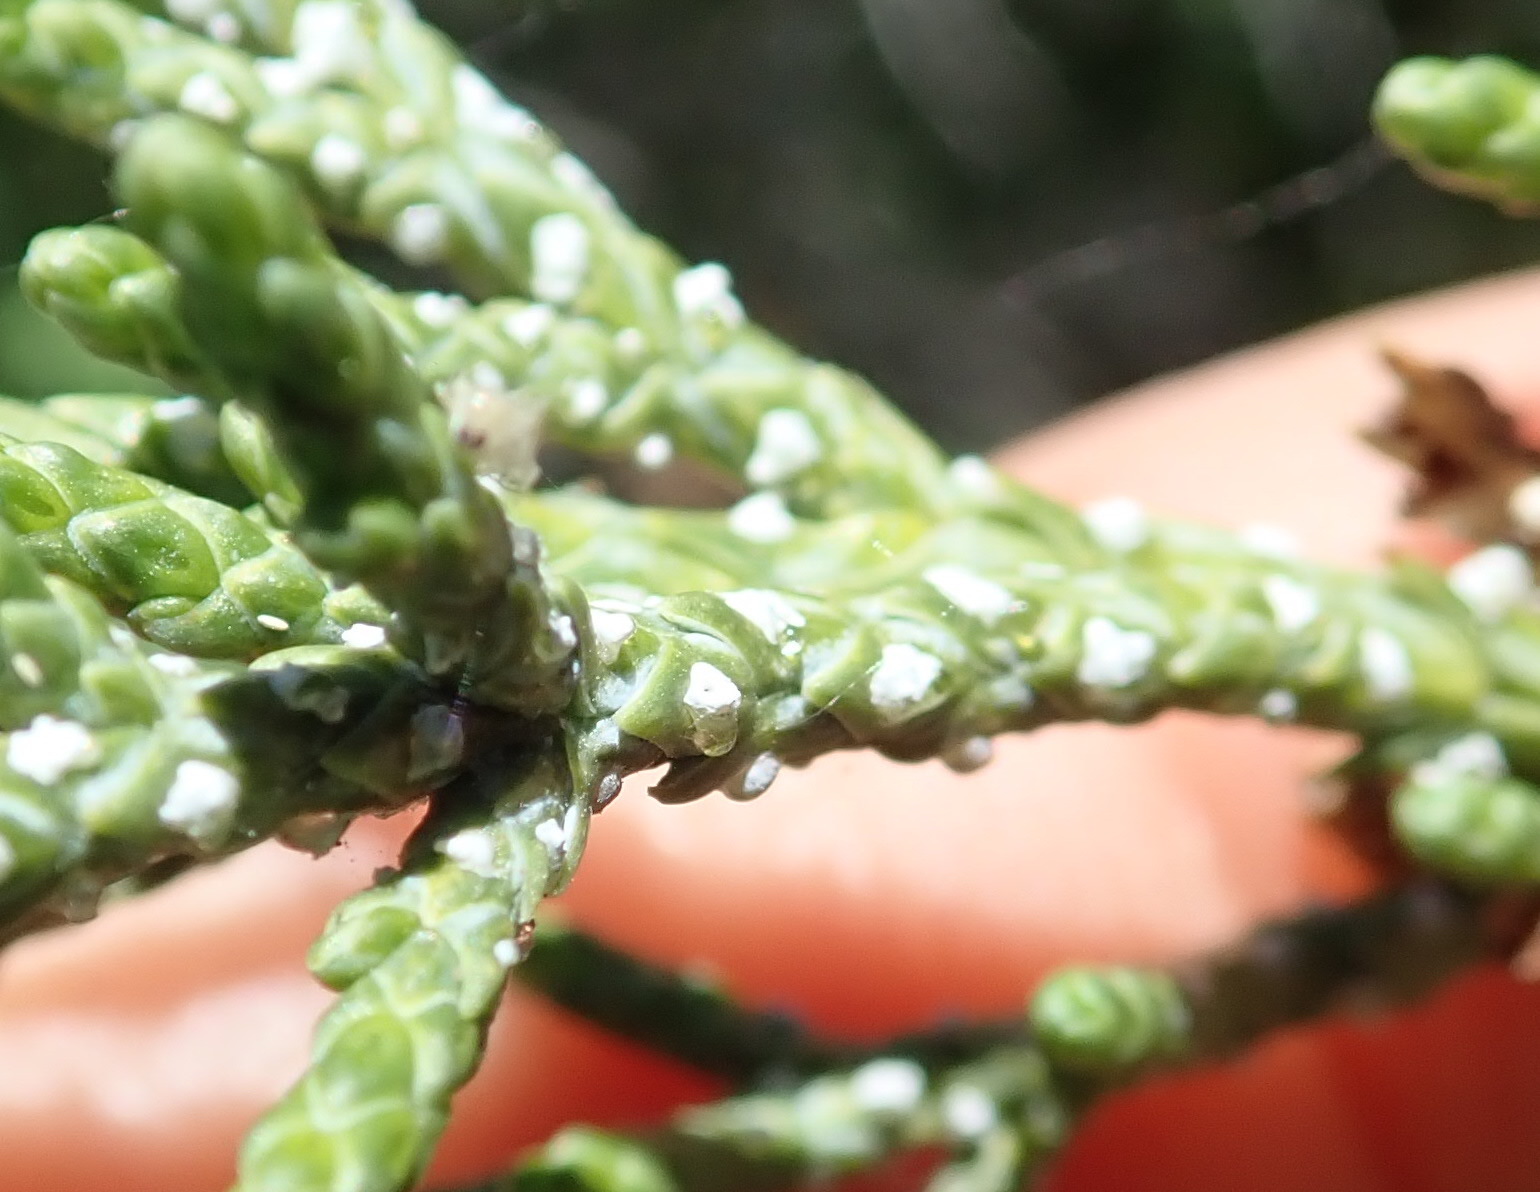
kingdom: Plantae
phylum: Tracheophyta
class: Pinopsida
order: Pinales
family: Cupressaceae
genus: Juniperus
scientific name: Juniperus occidentalis
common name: Western juniper
